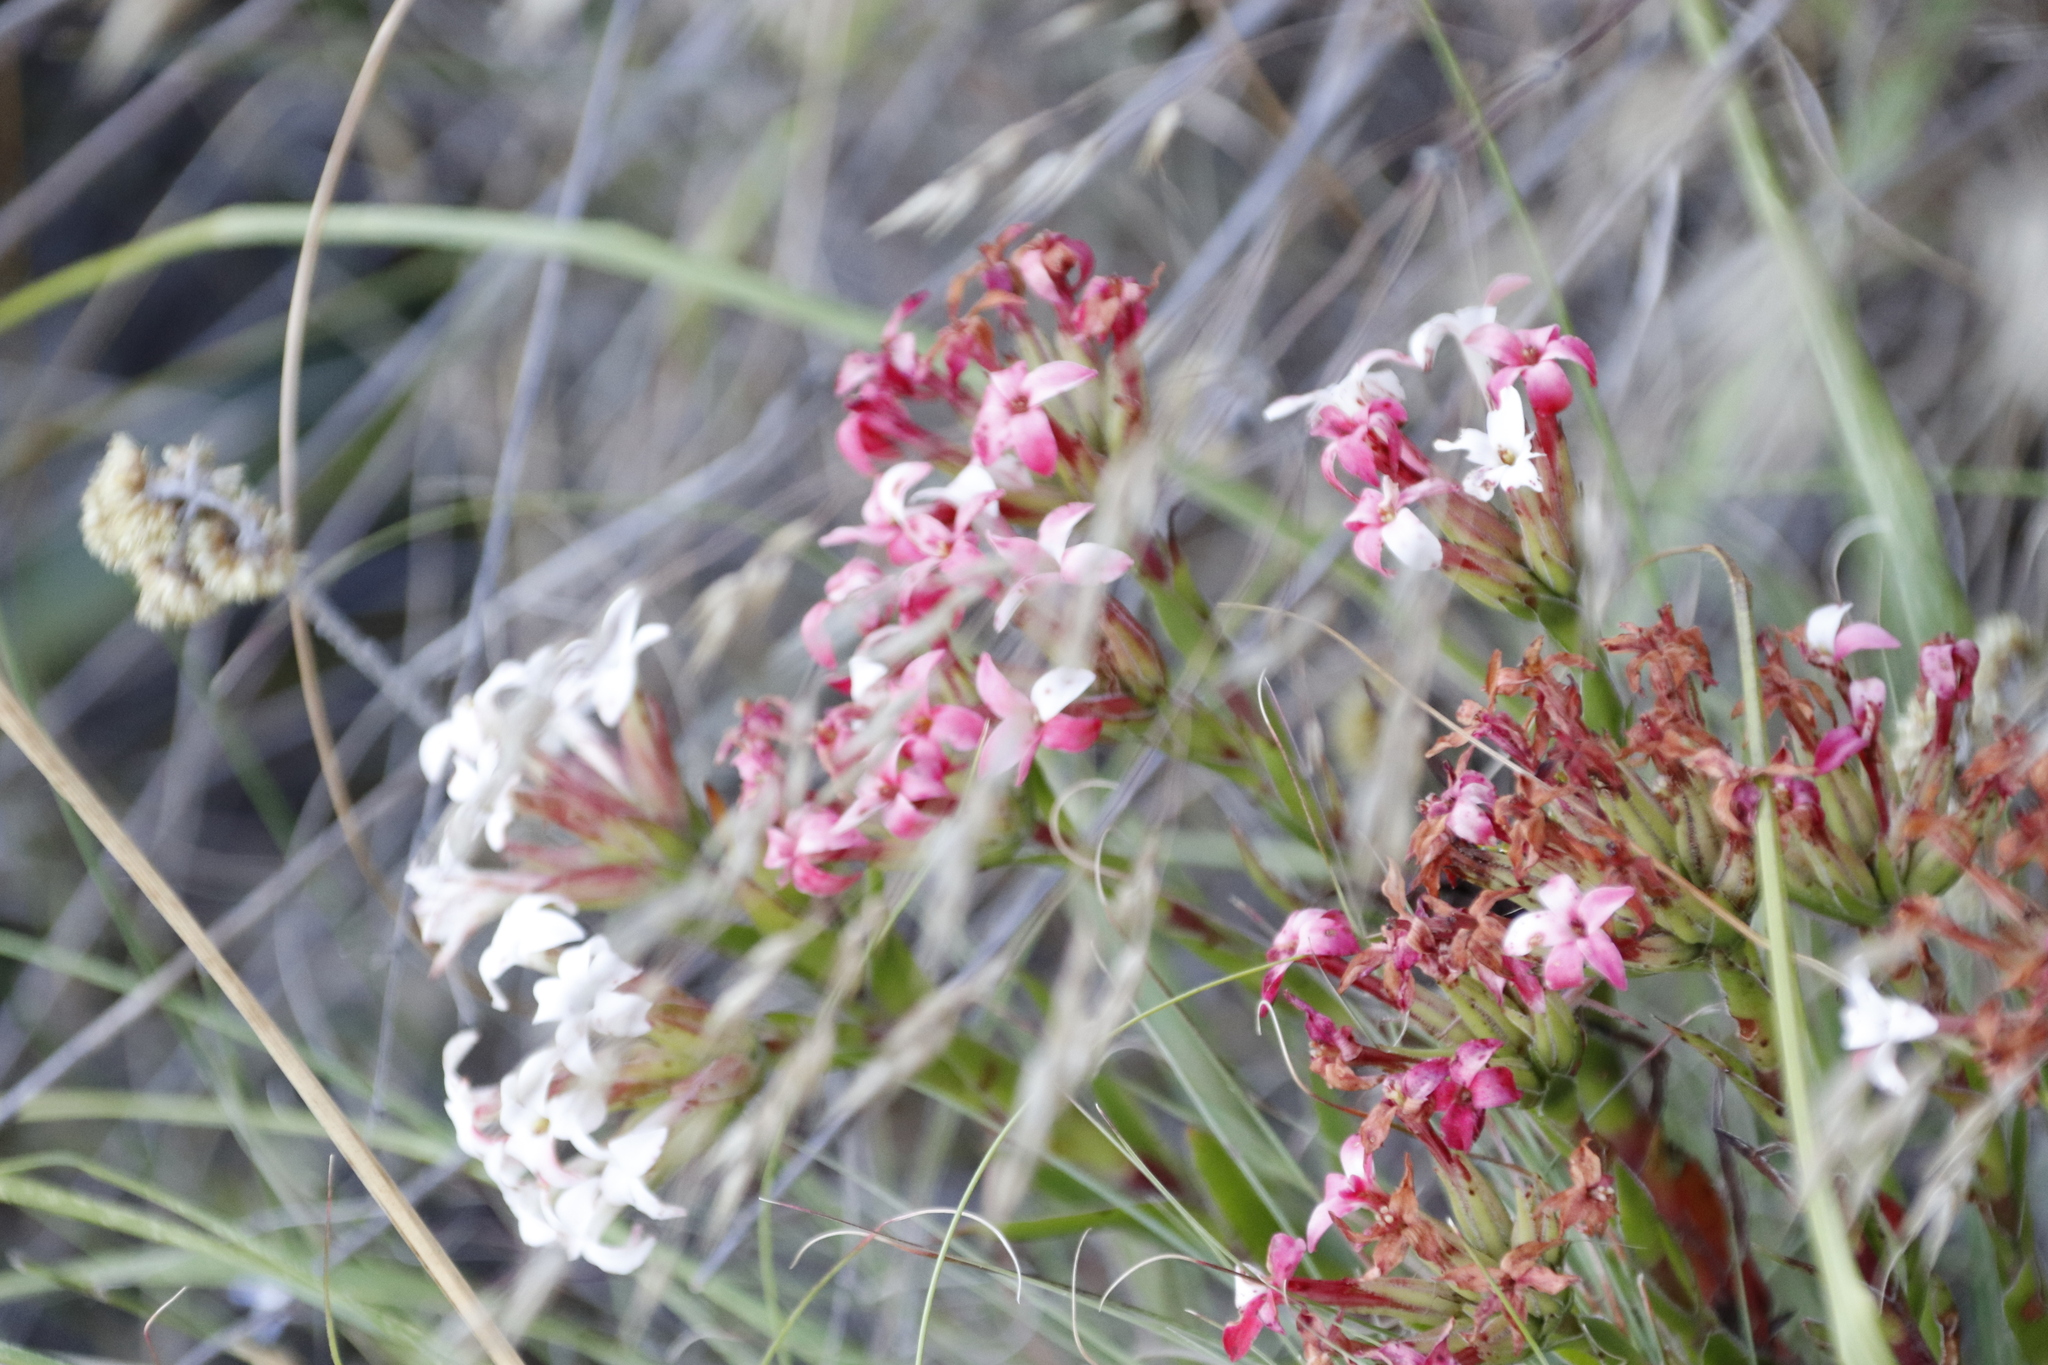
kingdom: Plantae
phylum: Tracheophyta
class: Magnoliopsida
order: Saxifragales
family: Crassulaceae
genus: Crassula
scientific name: Crassula fascicularis
